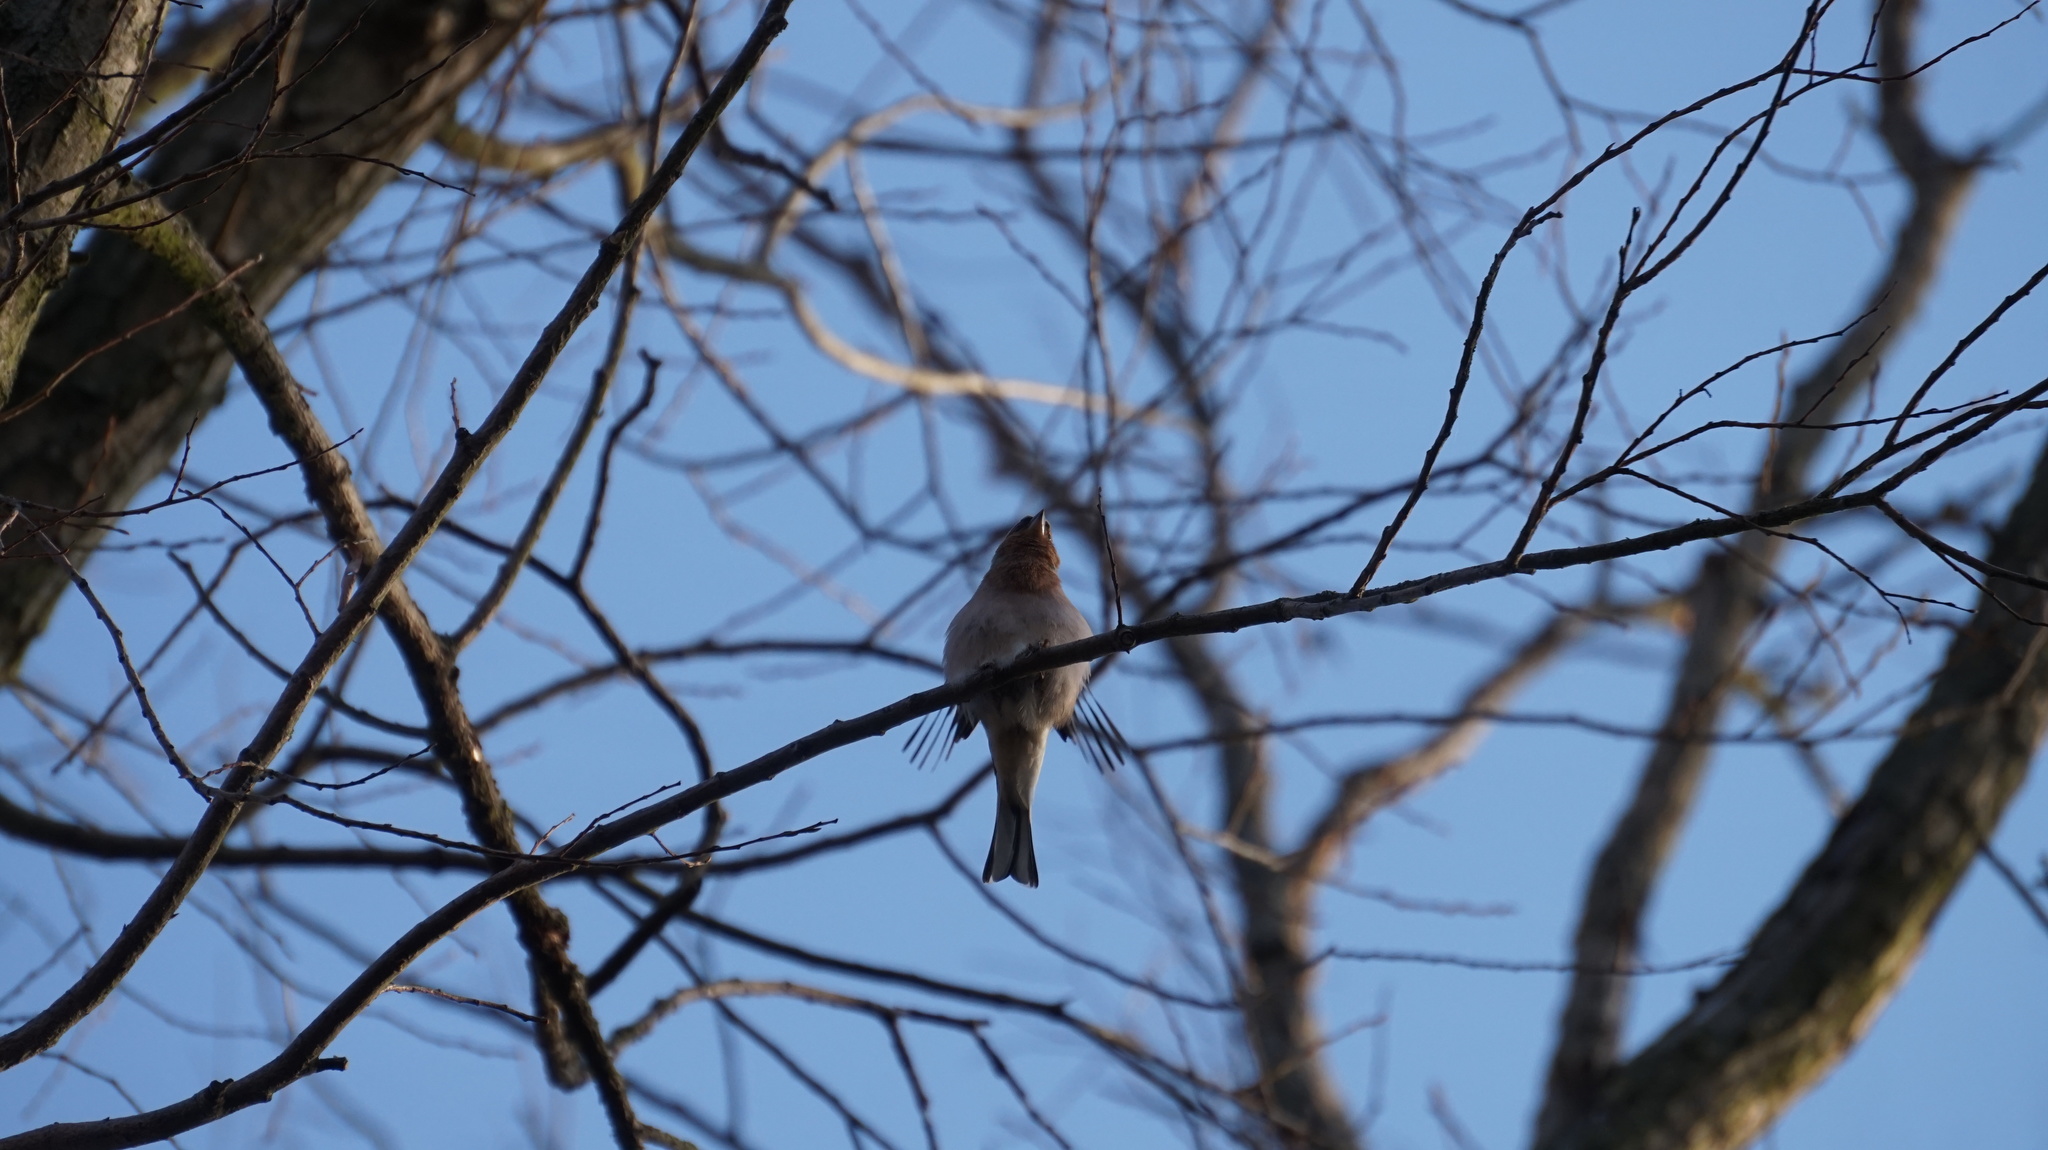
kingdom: Animalia
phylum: Chordata
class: Aves
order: Passeriformes
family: Fringillidae
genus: Fringilla
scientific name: Fringilla coelebs
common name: Common chaffinch
